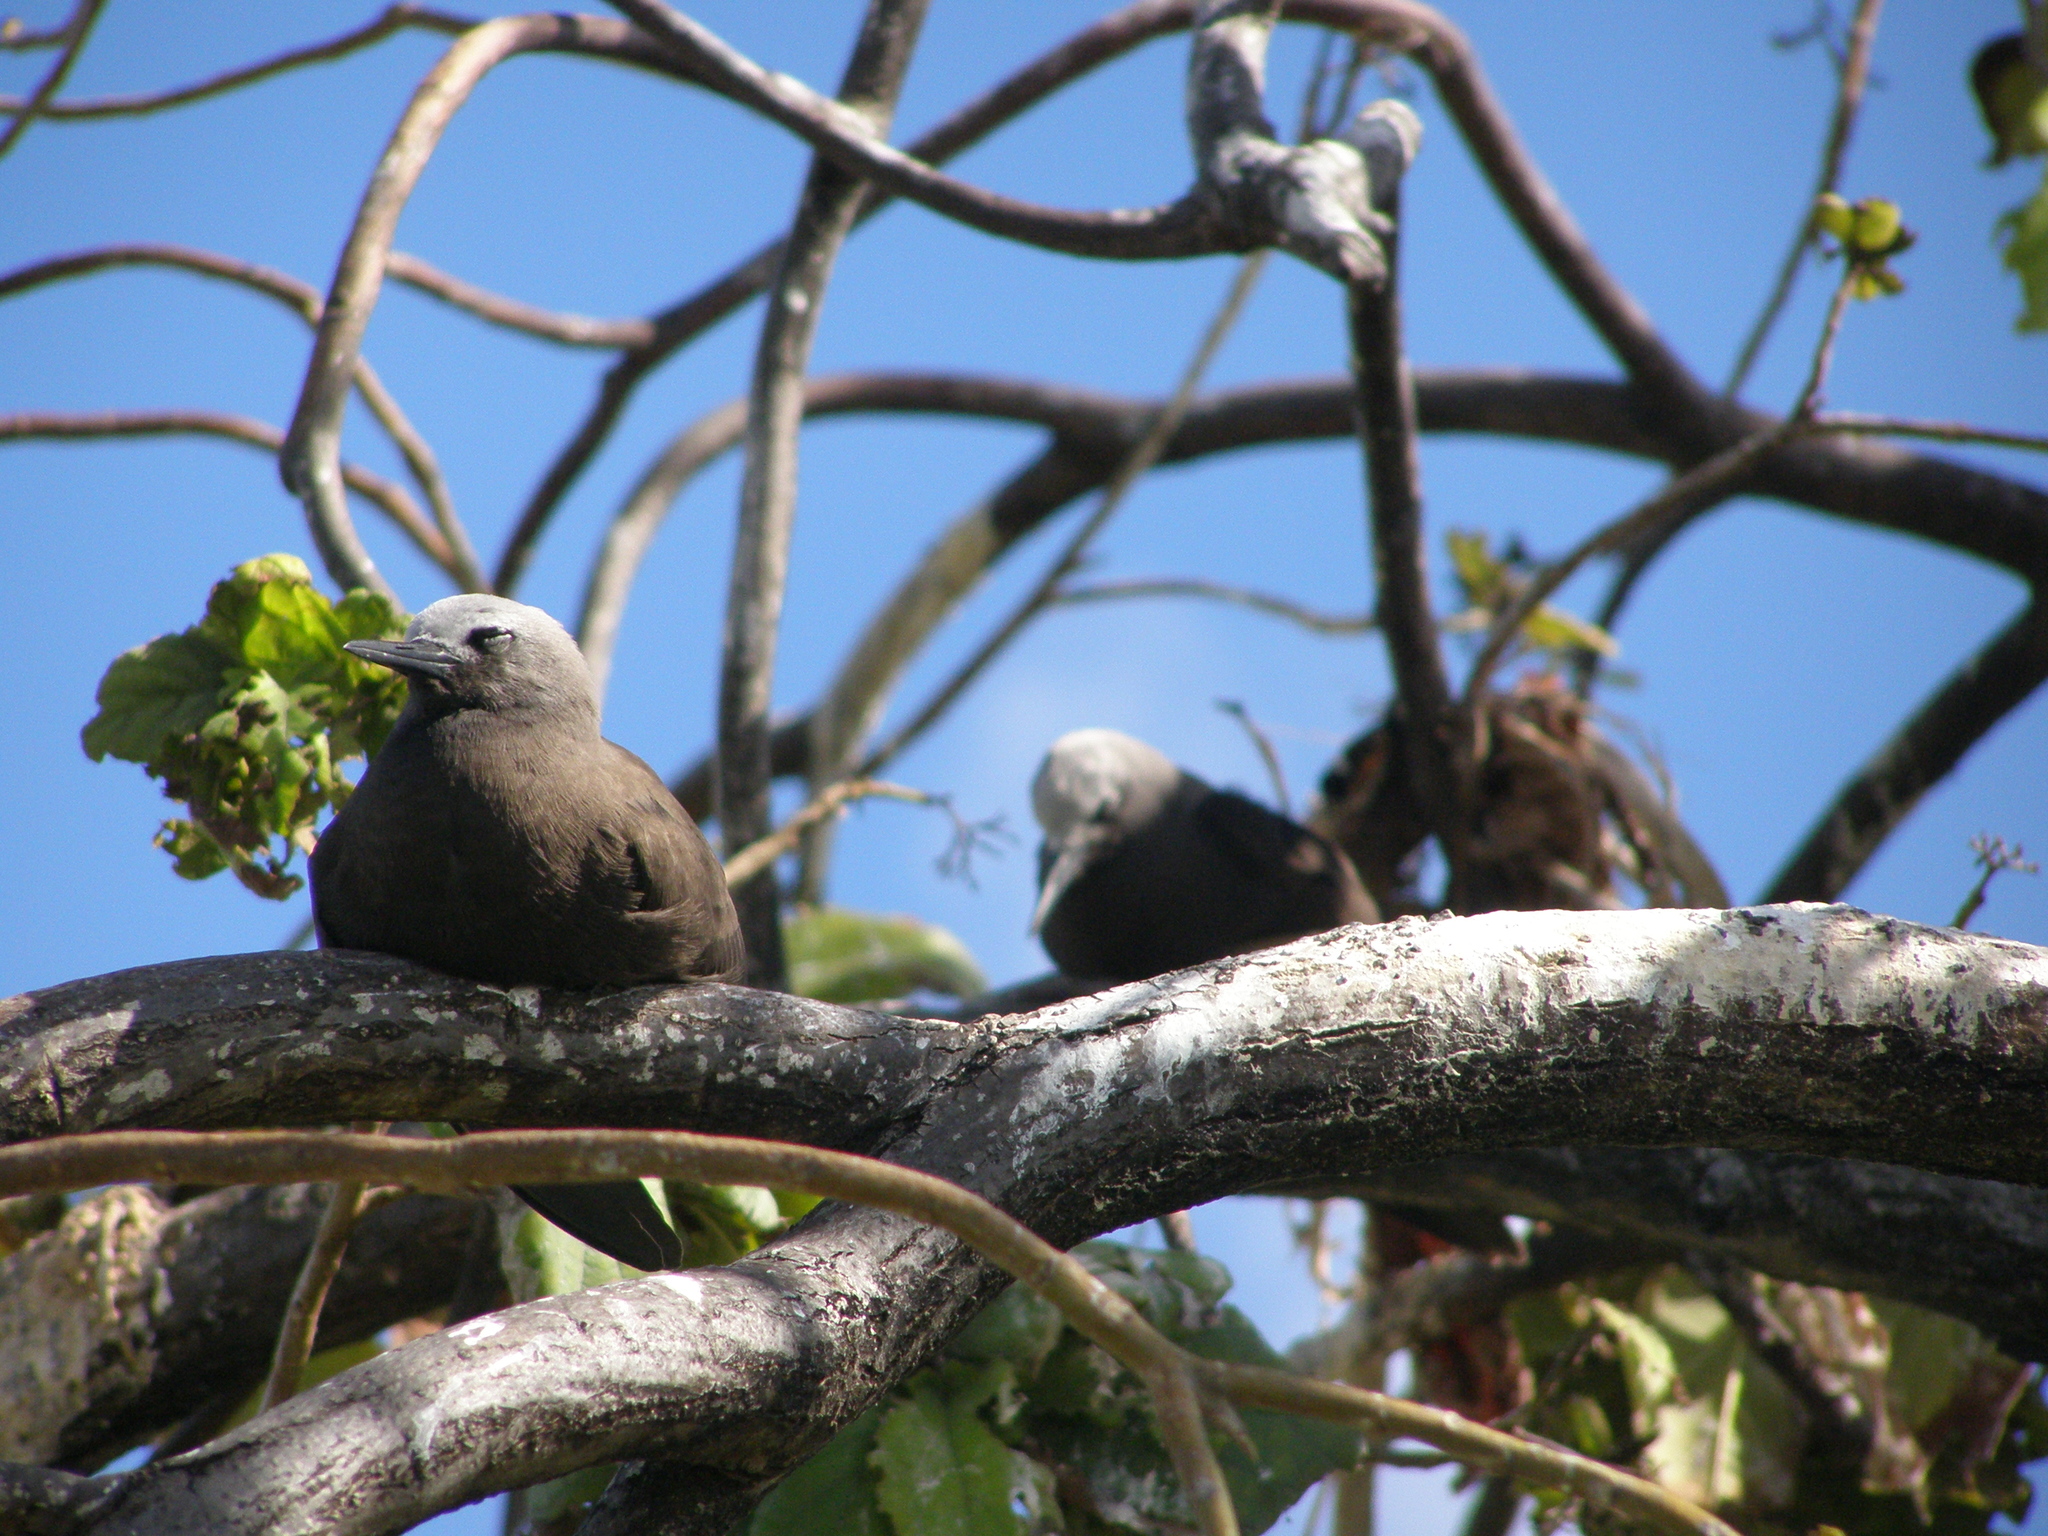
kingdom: Animalia
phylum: Chordata
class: Aves
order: Charadriiformes
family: Laridae
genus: Anous
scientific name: Anous tenuirostris
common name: Lesser noddy
